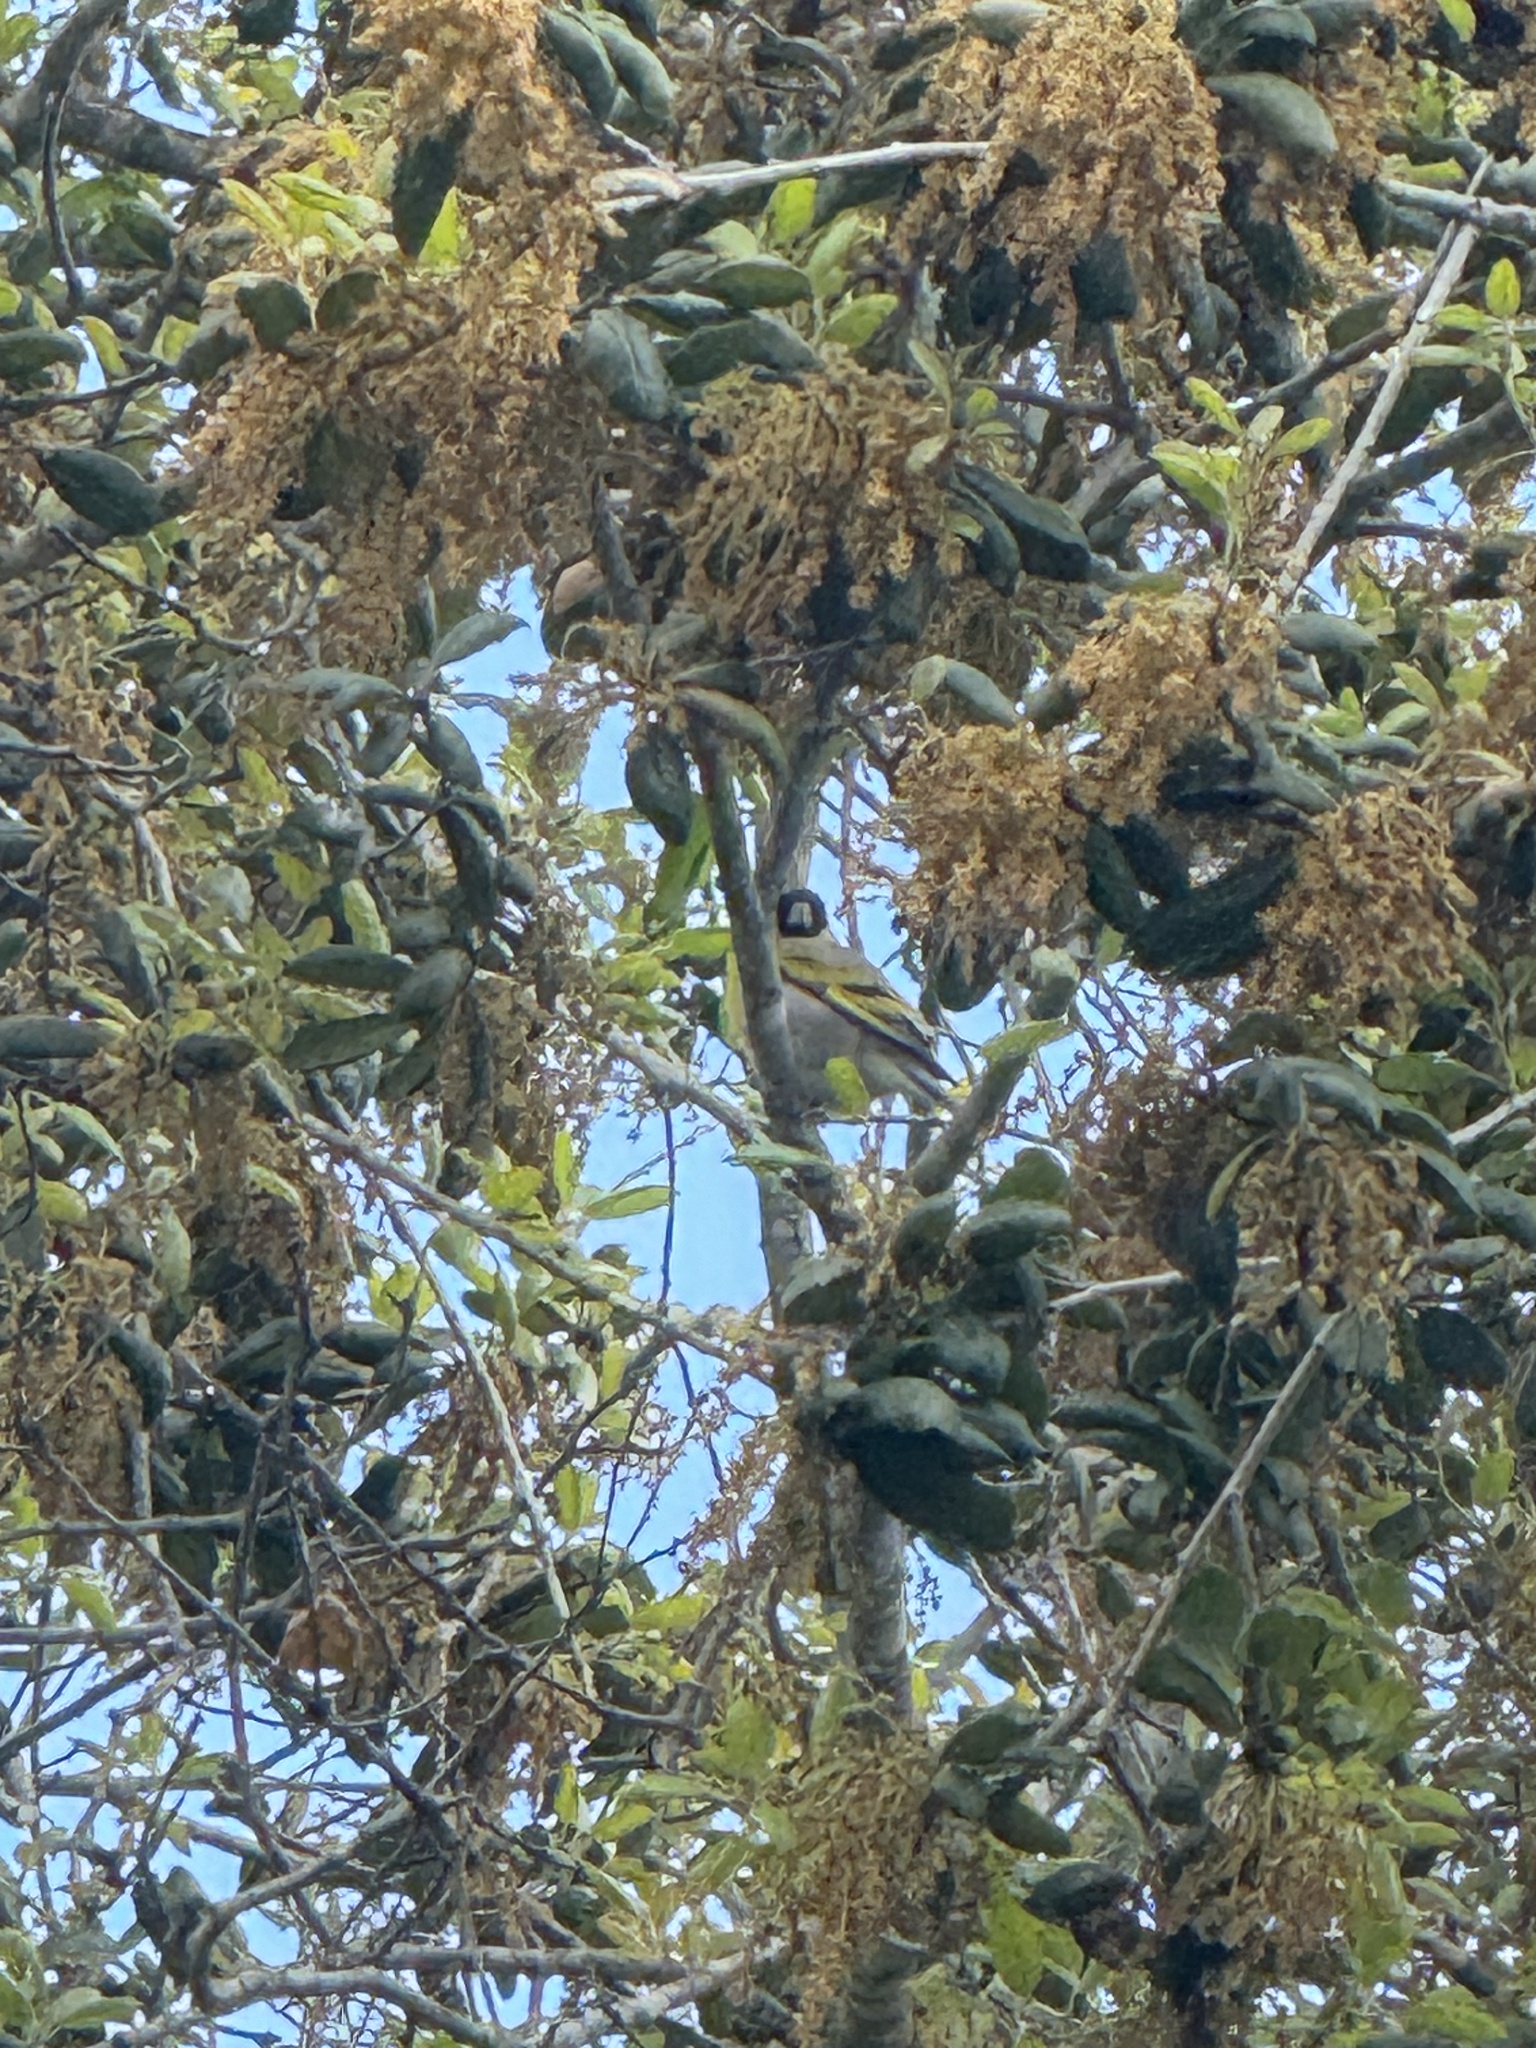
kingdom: Animalia
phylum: Chordata
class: Aves
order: Passeriformes
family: Fringillidae
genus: Spinus
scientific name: Spinus lawrencei
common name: Lawrence's goldfinch
